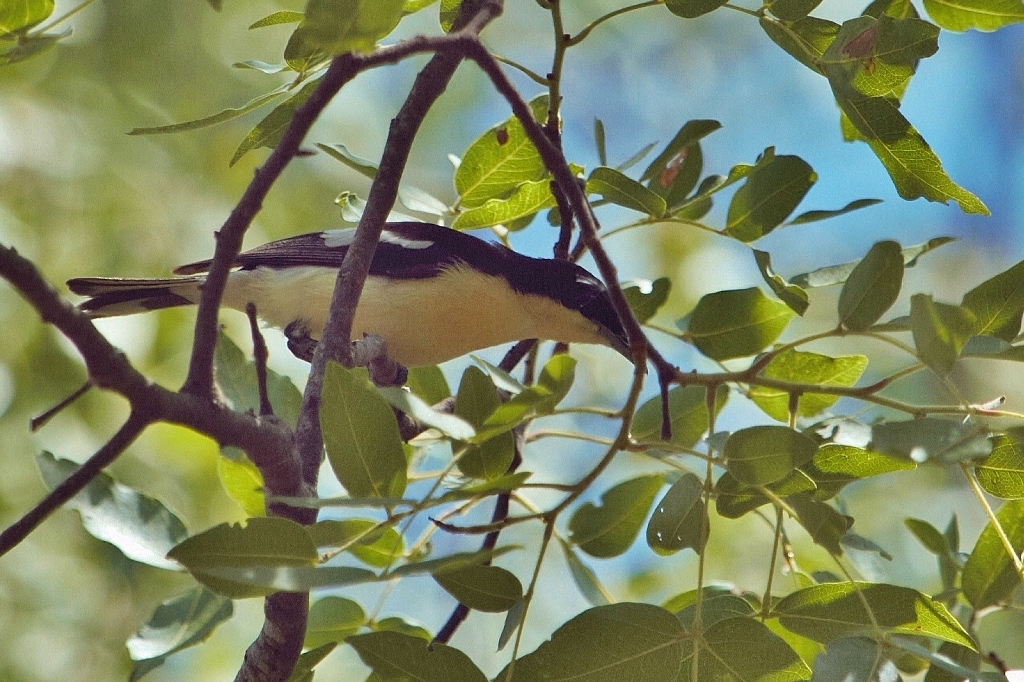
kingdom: Animalia
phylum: Chordata
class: Aves
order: Passeriformes
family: Hyliotidae
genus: Hyliota
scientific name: Hyliota australis
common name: Southern hyliota
